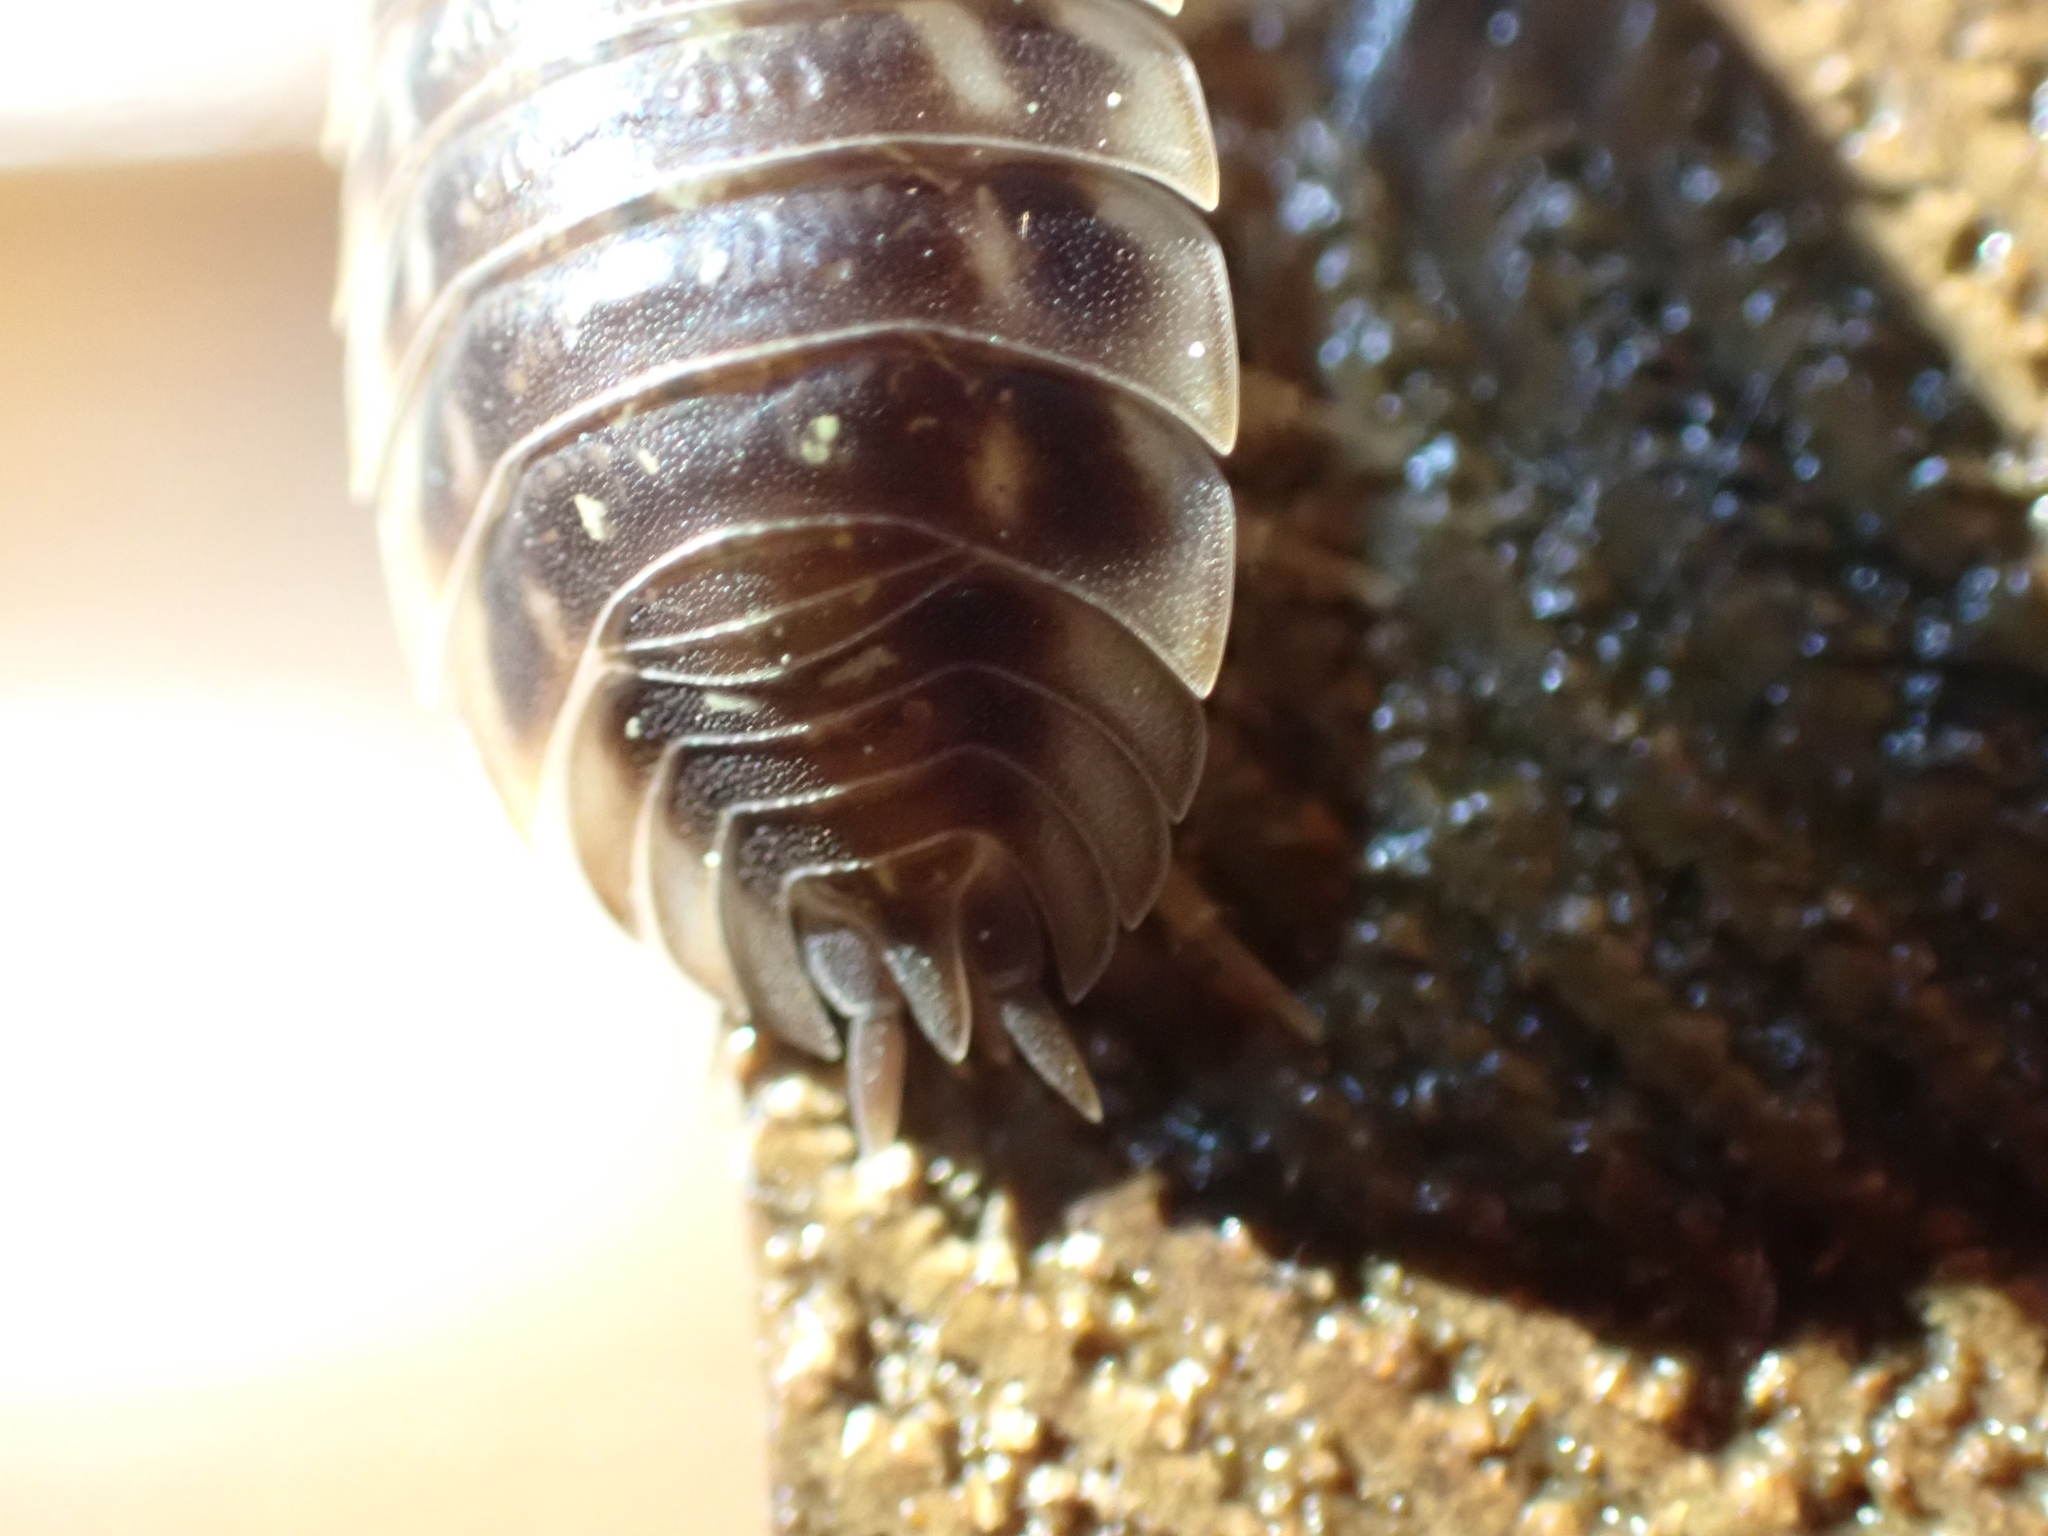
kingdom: Animalia
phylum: Arthropoda
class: Malacostraca
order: Isopoda
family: Oniscidae
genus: Oniscus
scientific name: Oniscus asellus
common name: Common shiny woodlouse
